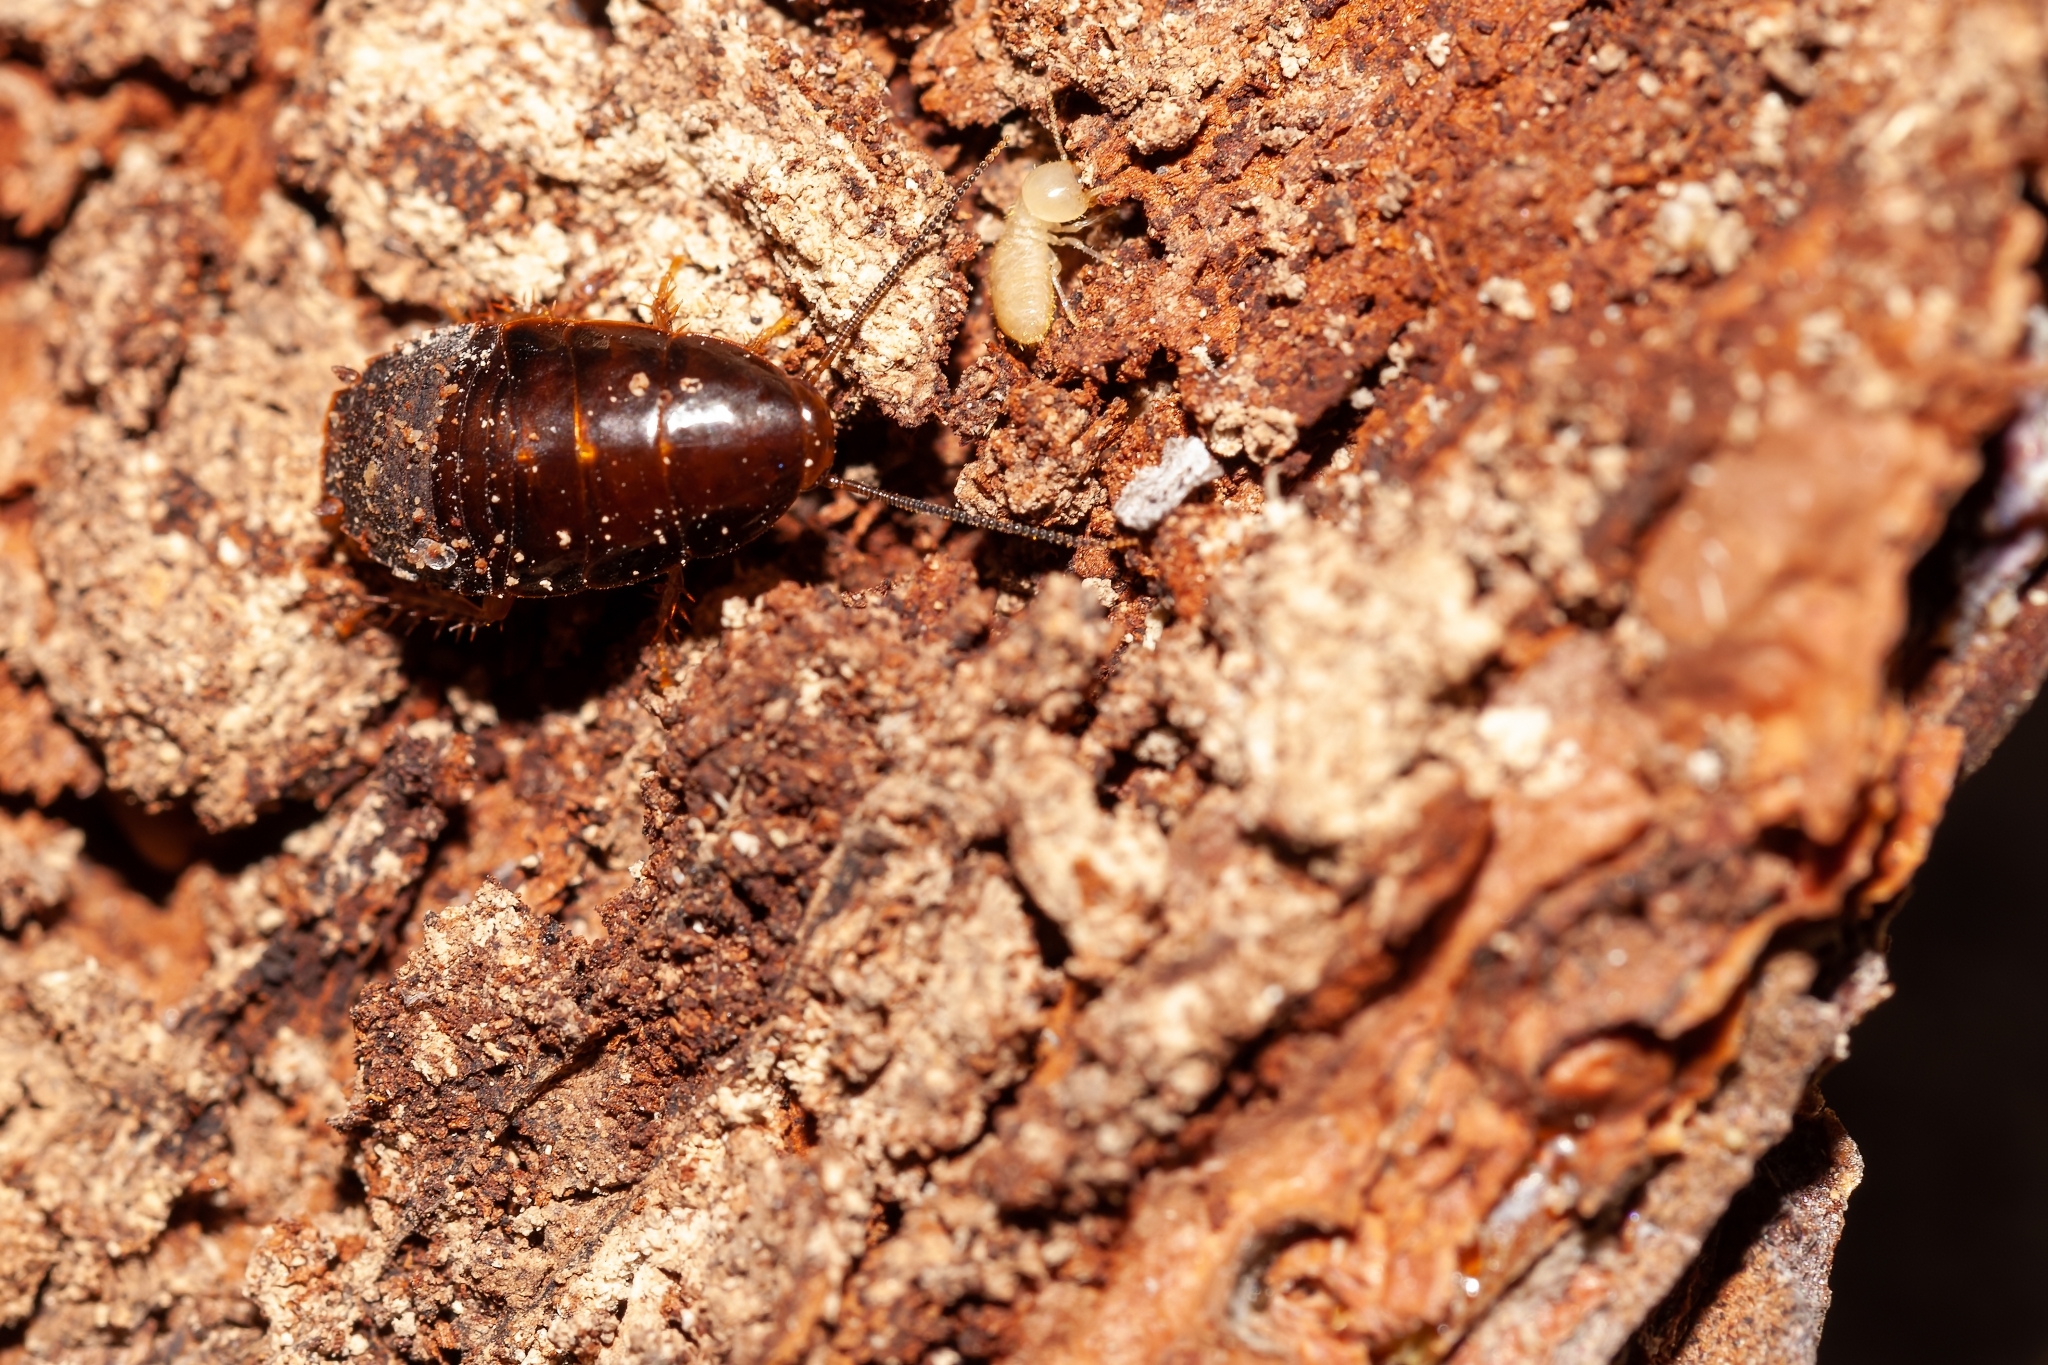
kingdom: Animalia
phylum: Arthropoda
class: Insecta
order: Blattodea
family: Blaberidae
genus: Pycnoscelus
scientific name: Pycnoscelus surinamensis
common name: Surinam cockroach
